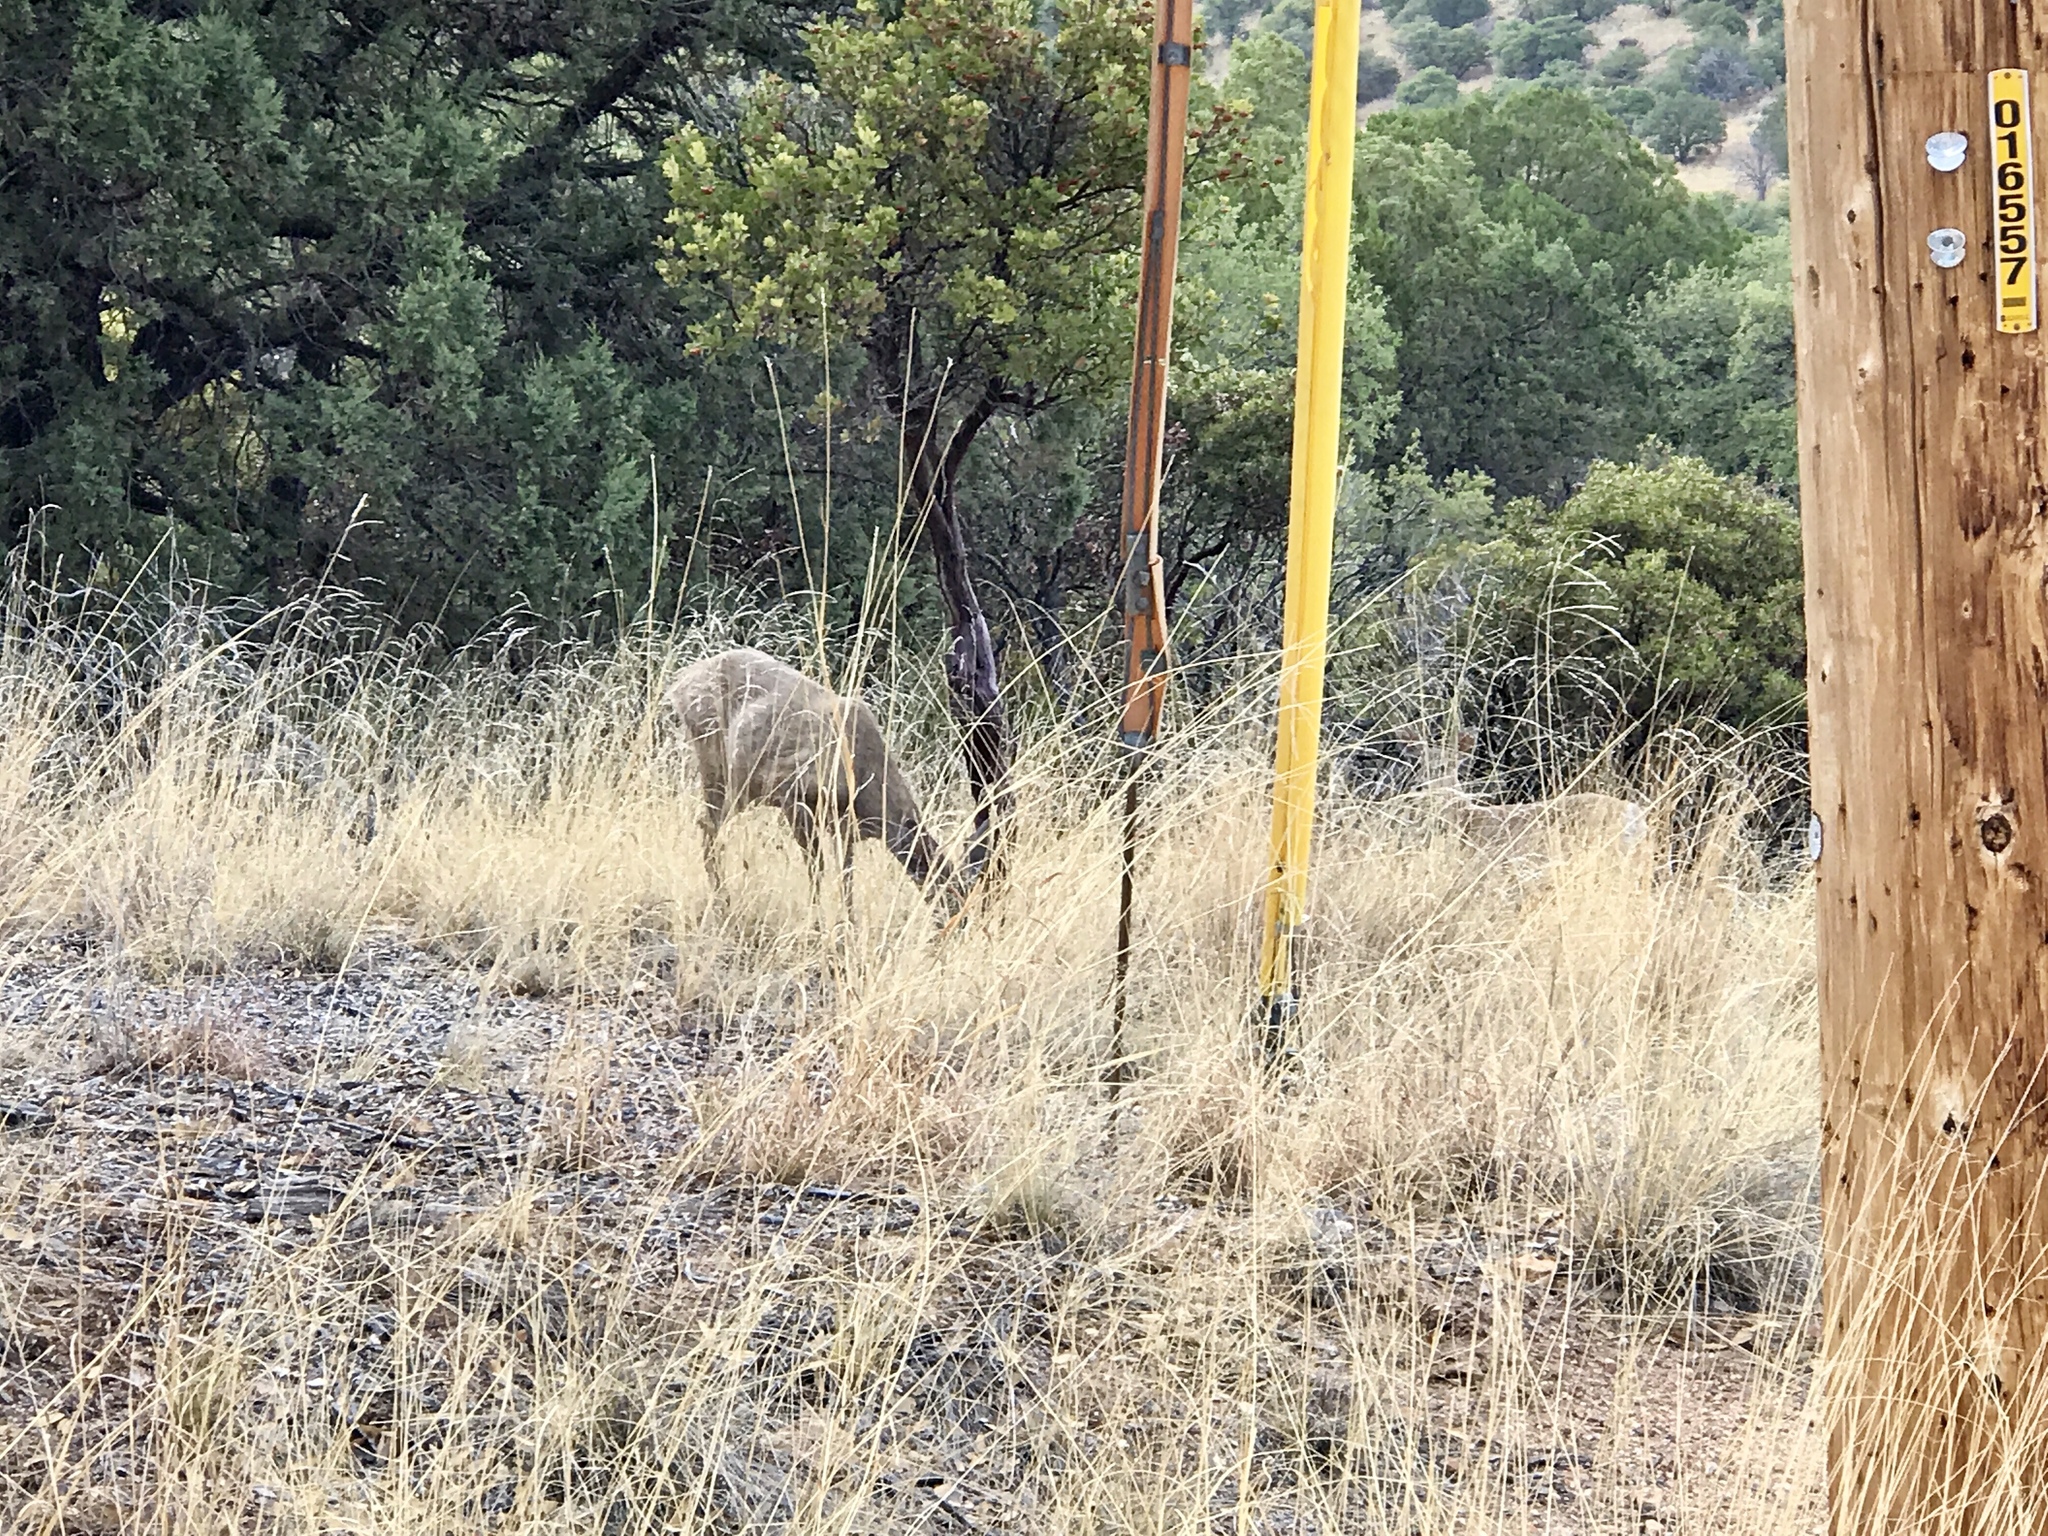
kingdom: Animalia
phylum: Chordata
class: Mammalia
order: Artiodactyla
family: Cervidae
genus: Odocoileus
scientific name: Odocoileus virginianus
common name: White-tailed deer
